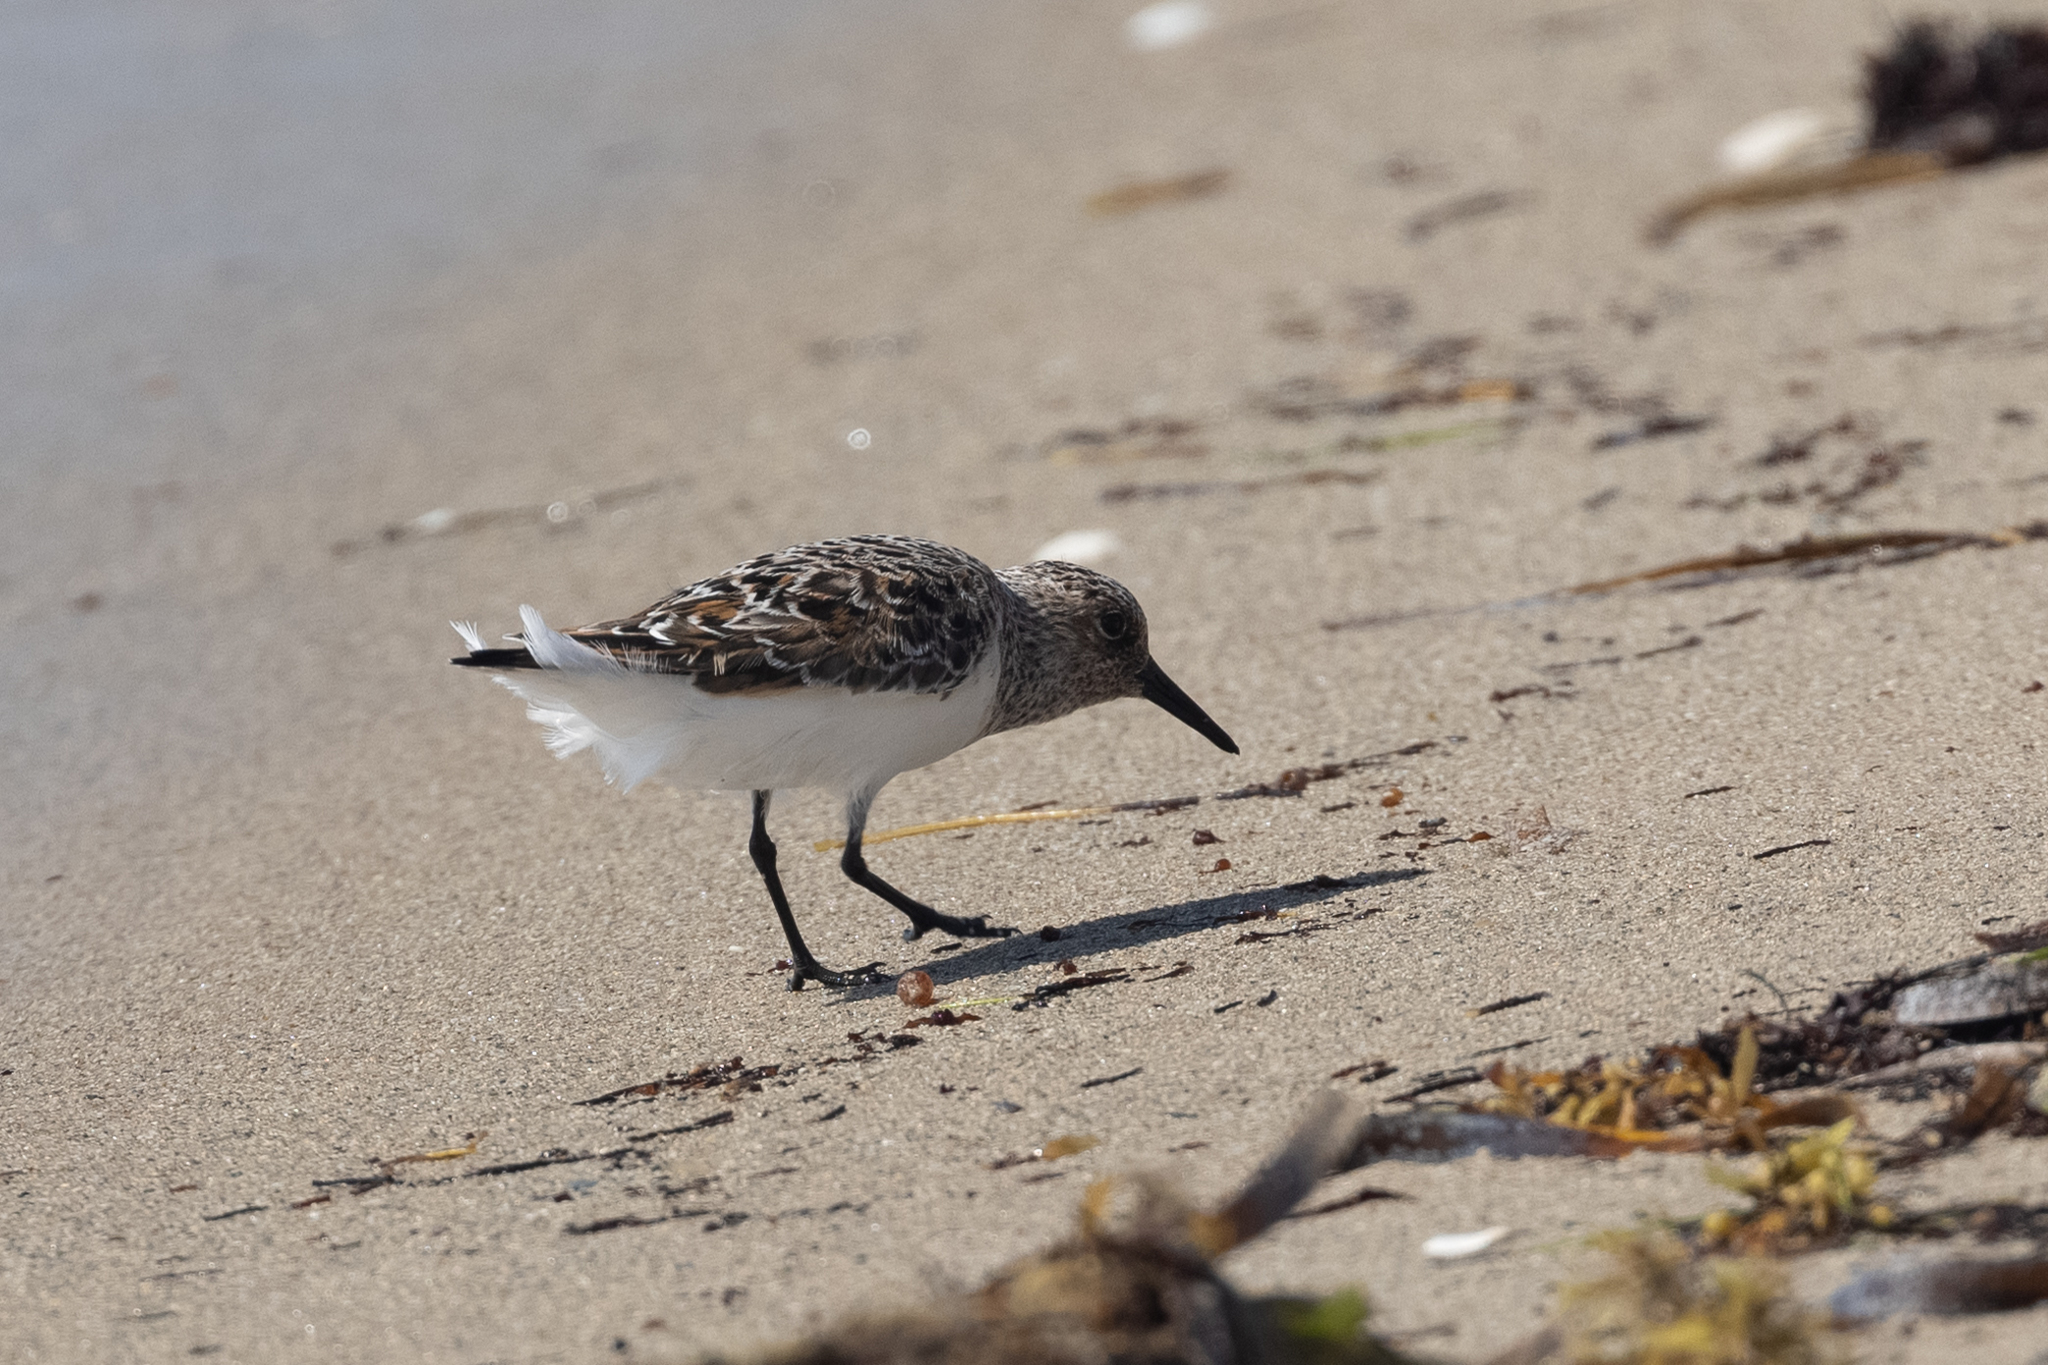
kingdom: Animalia
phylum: Chordata
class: Aves
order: Charadriiformes
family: Scolopacidae
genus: Calidris
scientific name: Calidris alba
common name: Sanderling
